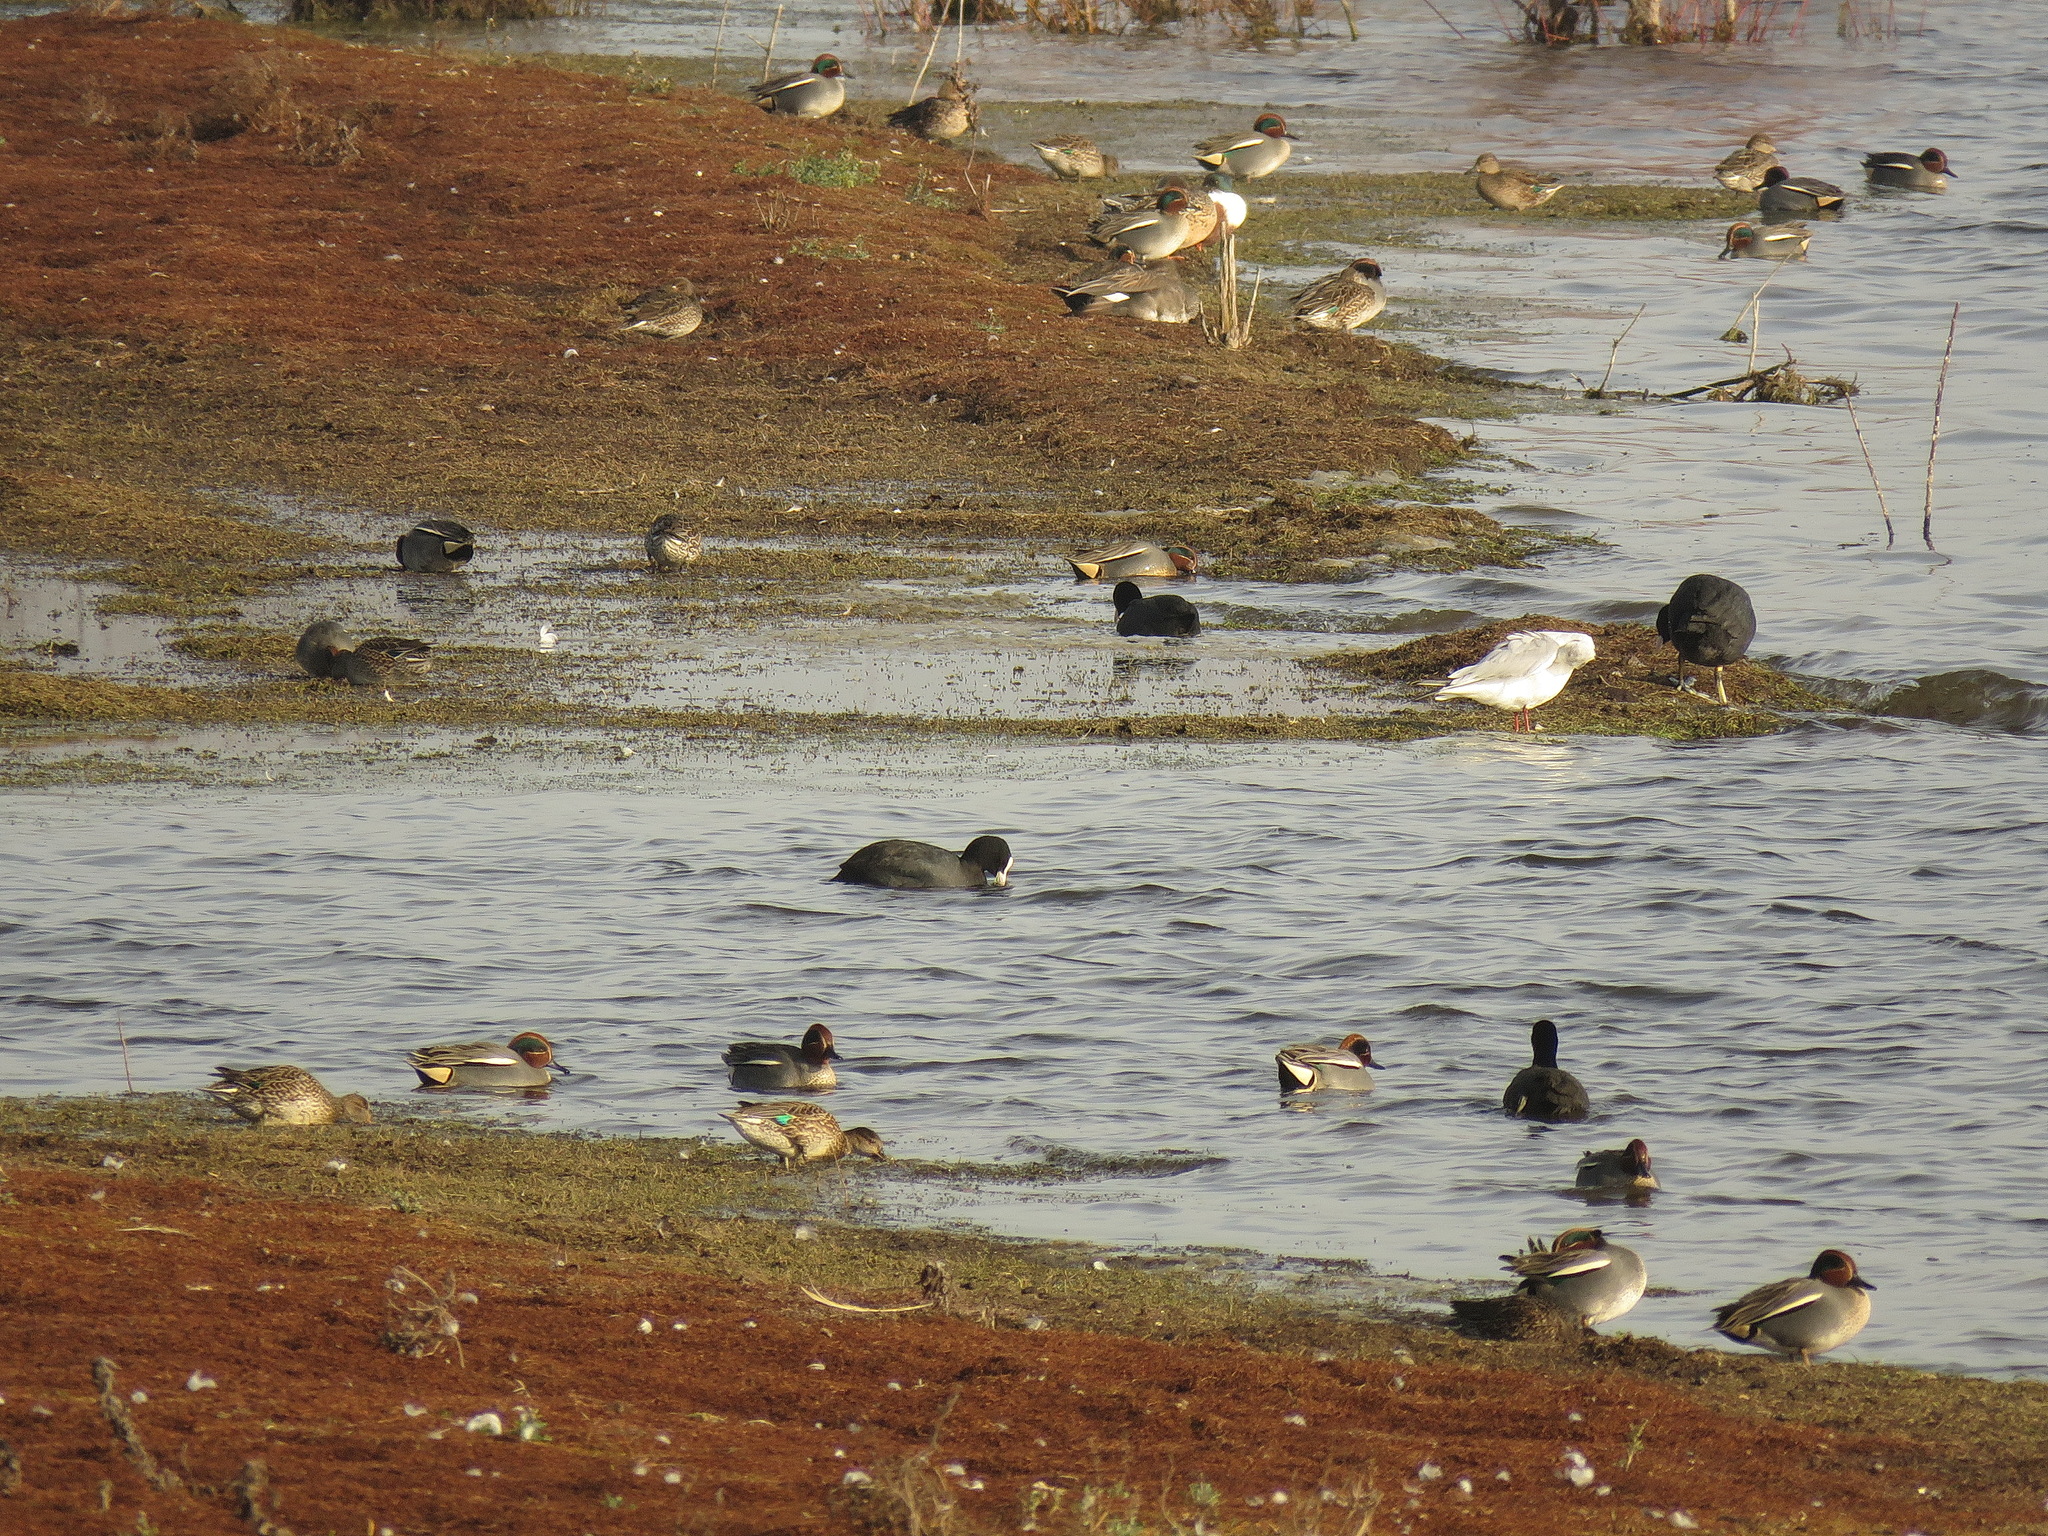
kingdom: Animalia
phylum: Chordata
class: Aves
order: Anseriformes
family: Anatidae
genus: Anas
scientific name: Anas crecca
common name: Eurasian teal
